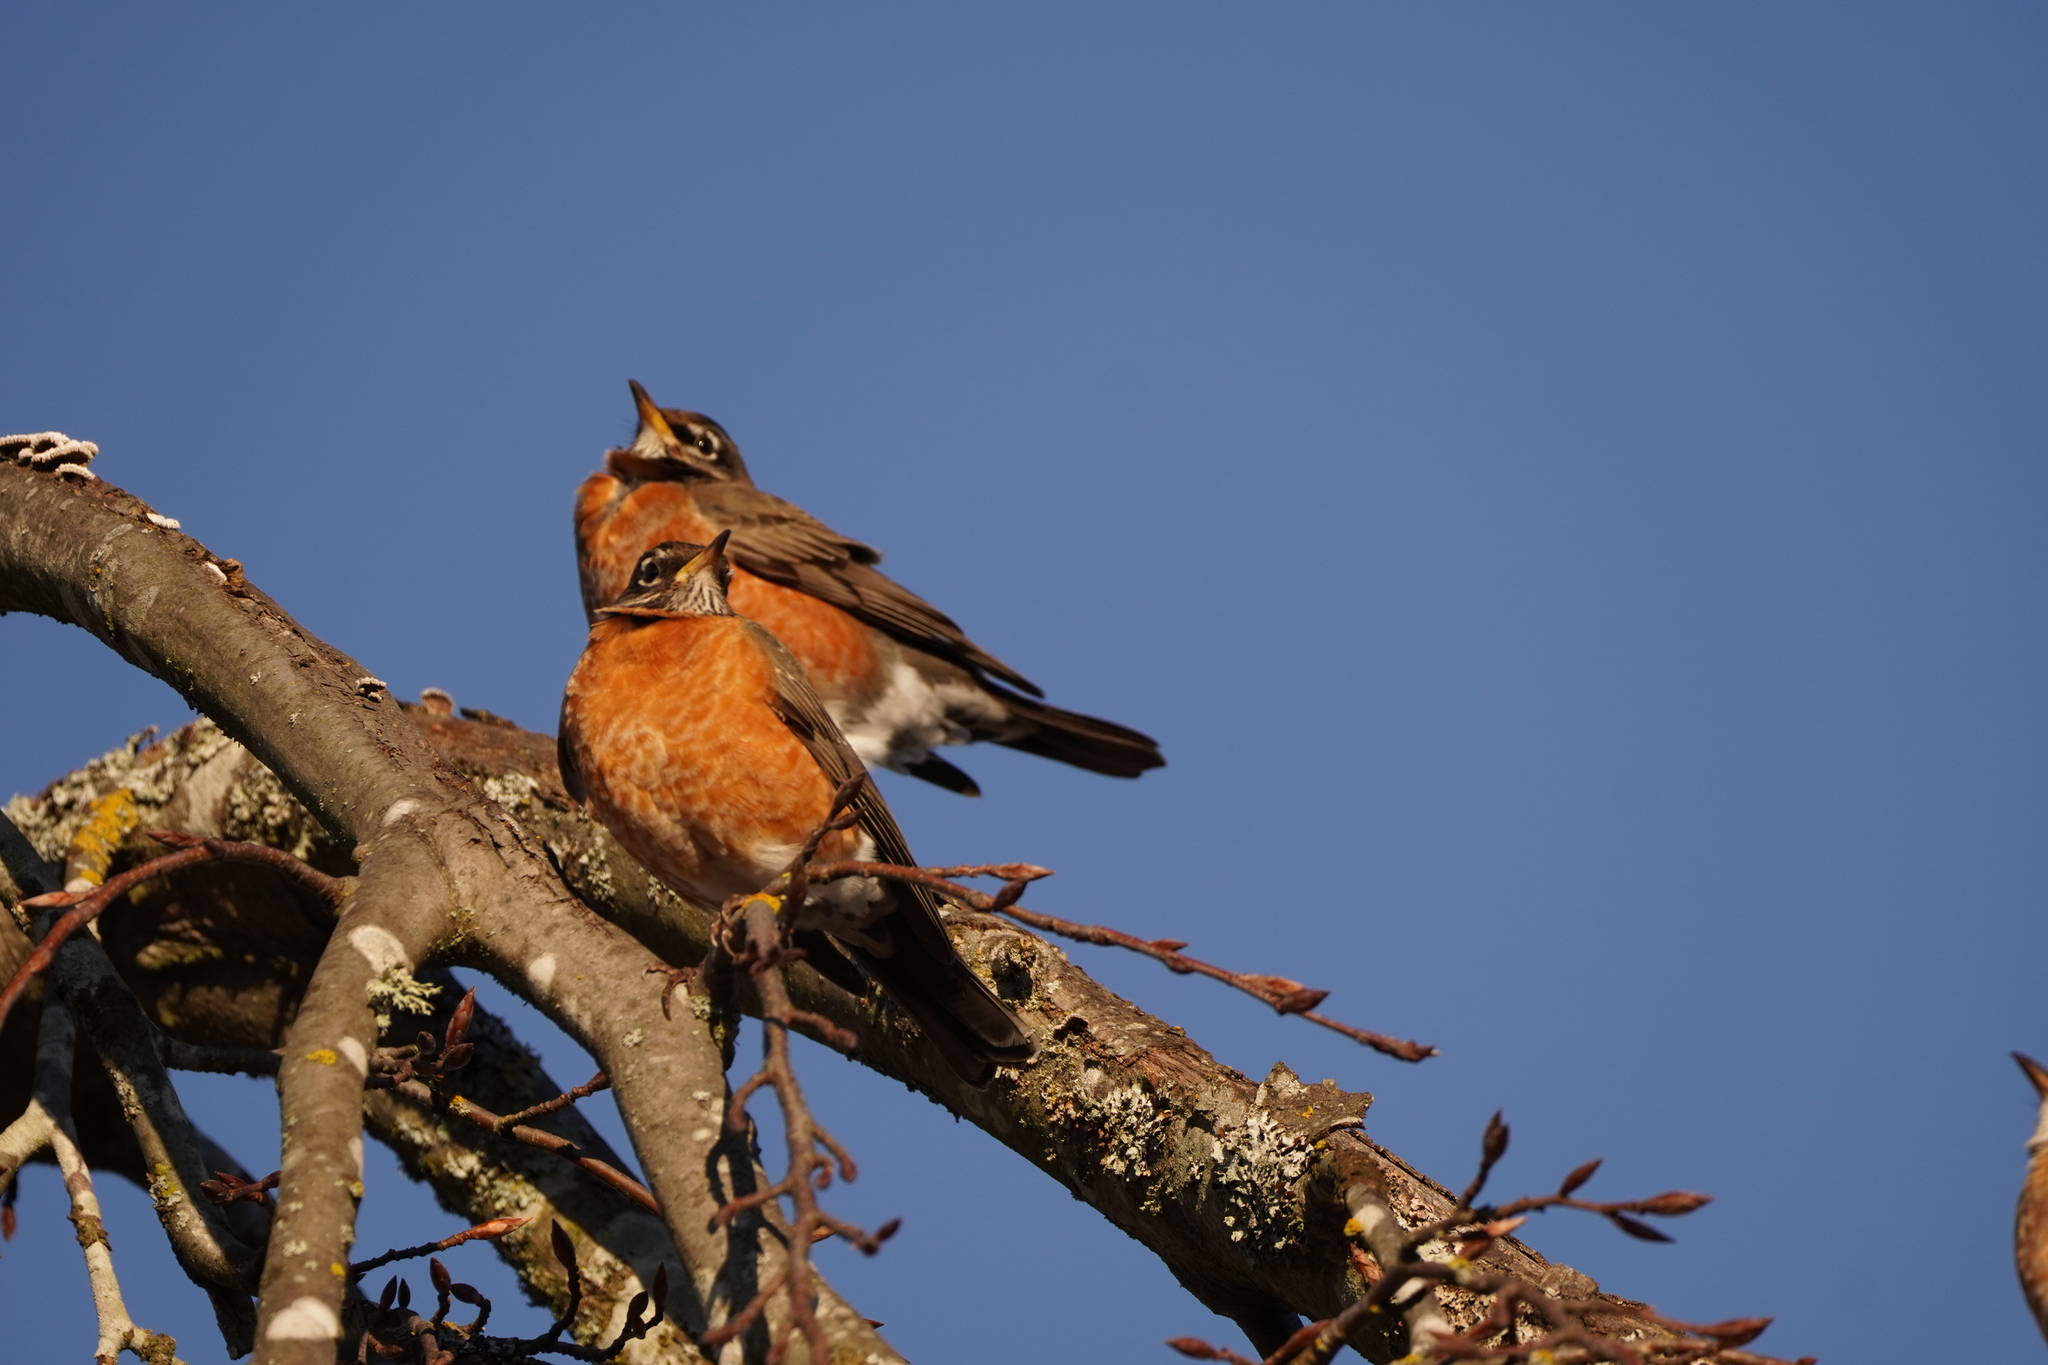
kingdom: Animalia
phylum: Chordata
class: Aves
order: Passeriformes
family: Turdidae
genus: Turdus
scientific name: Turdus migratorius
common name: American robin
